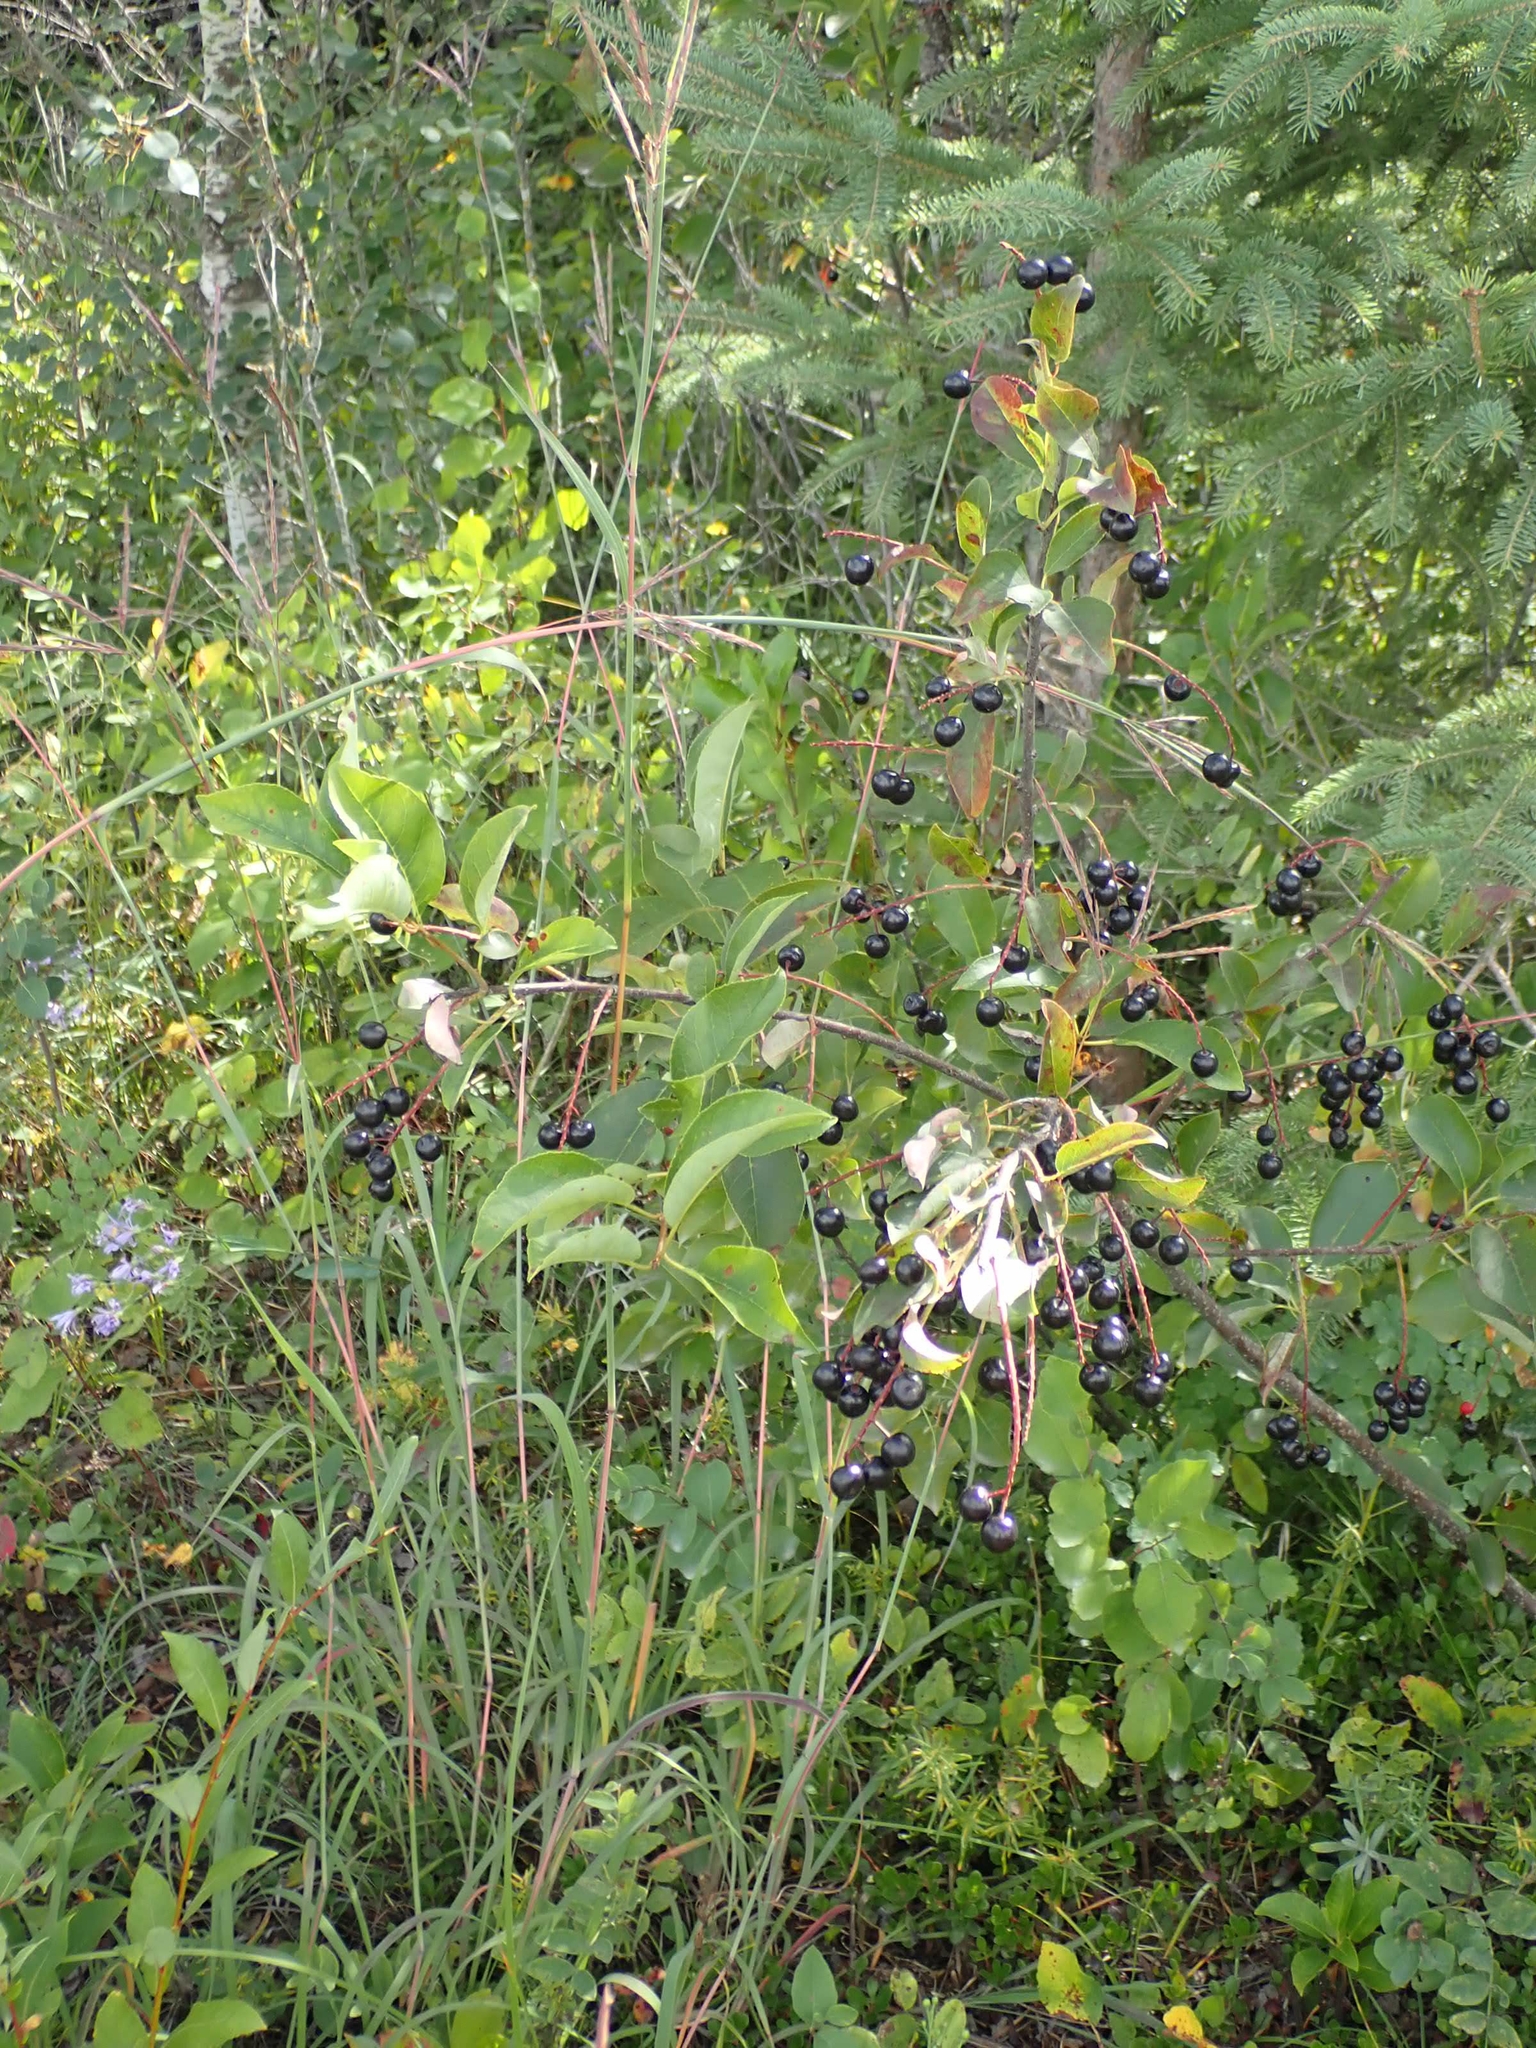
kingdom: Plantae
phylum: Tracheophyta
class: Magnoliopsida
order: Rosales
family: Rosaceae
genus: Prunus
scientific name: Prunus virginiana
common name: Chokecherry
